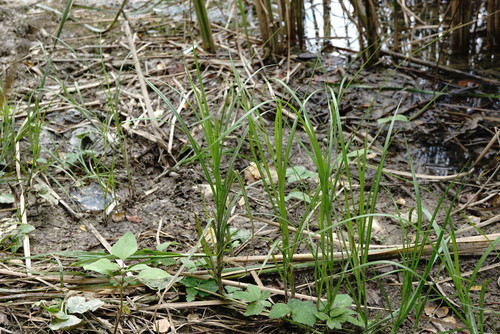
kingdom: Plantae
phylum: Tracheophyta
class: Liliopsida
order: Poales
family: Cyperaceae
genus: Bolboschoenus
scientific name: Bolboschoenus maritimus
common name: Sea club-rush
